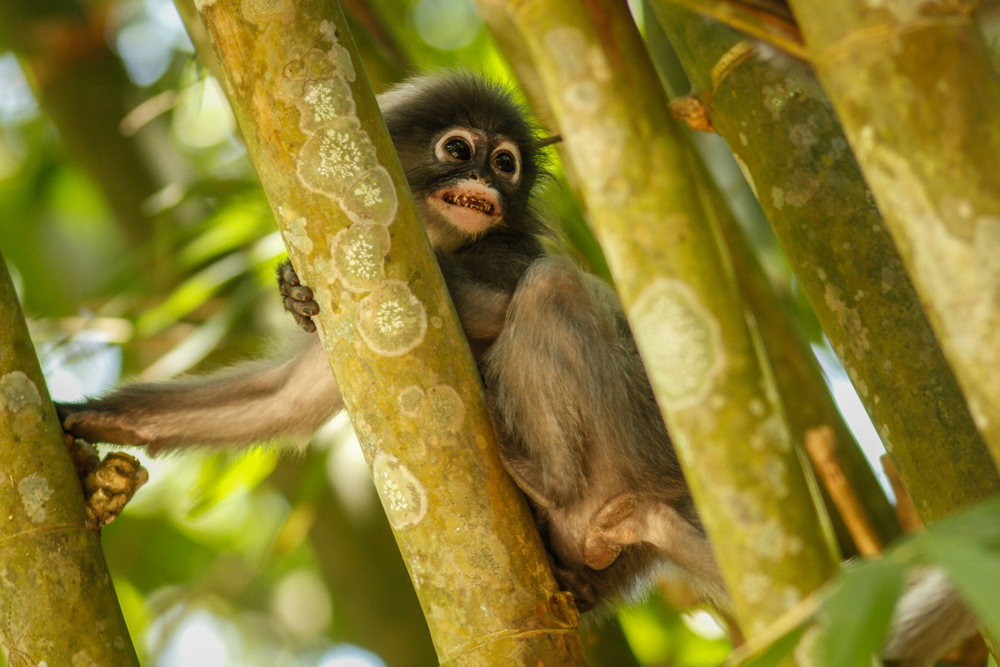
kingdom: Animalia
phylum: Chordata
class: Mammalia
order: Primates
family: Cercopithecidae
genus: Trachypithecus
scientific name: Trachypithecus obscurus
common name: Dusky leaf-monkey
